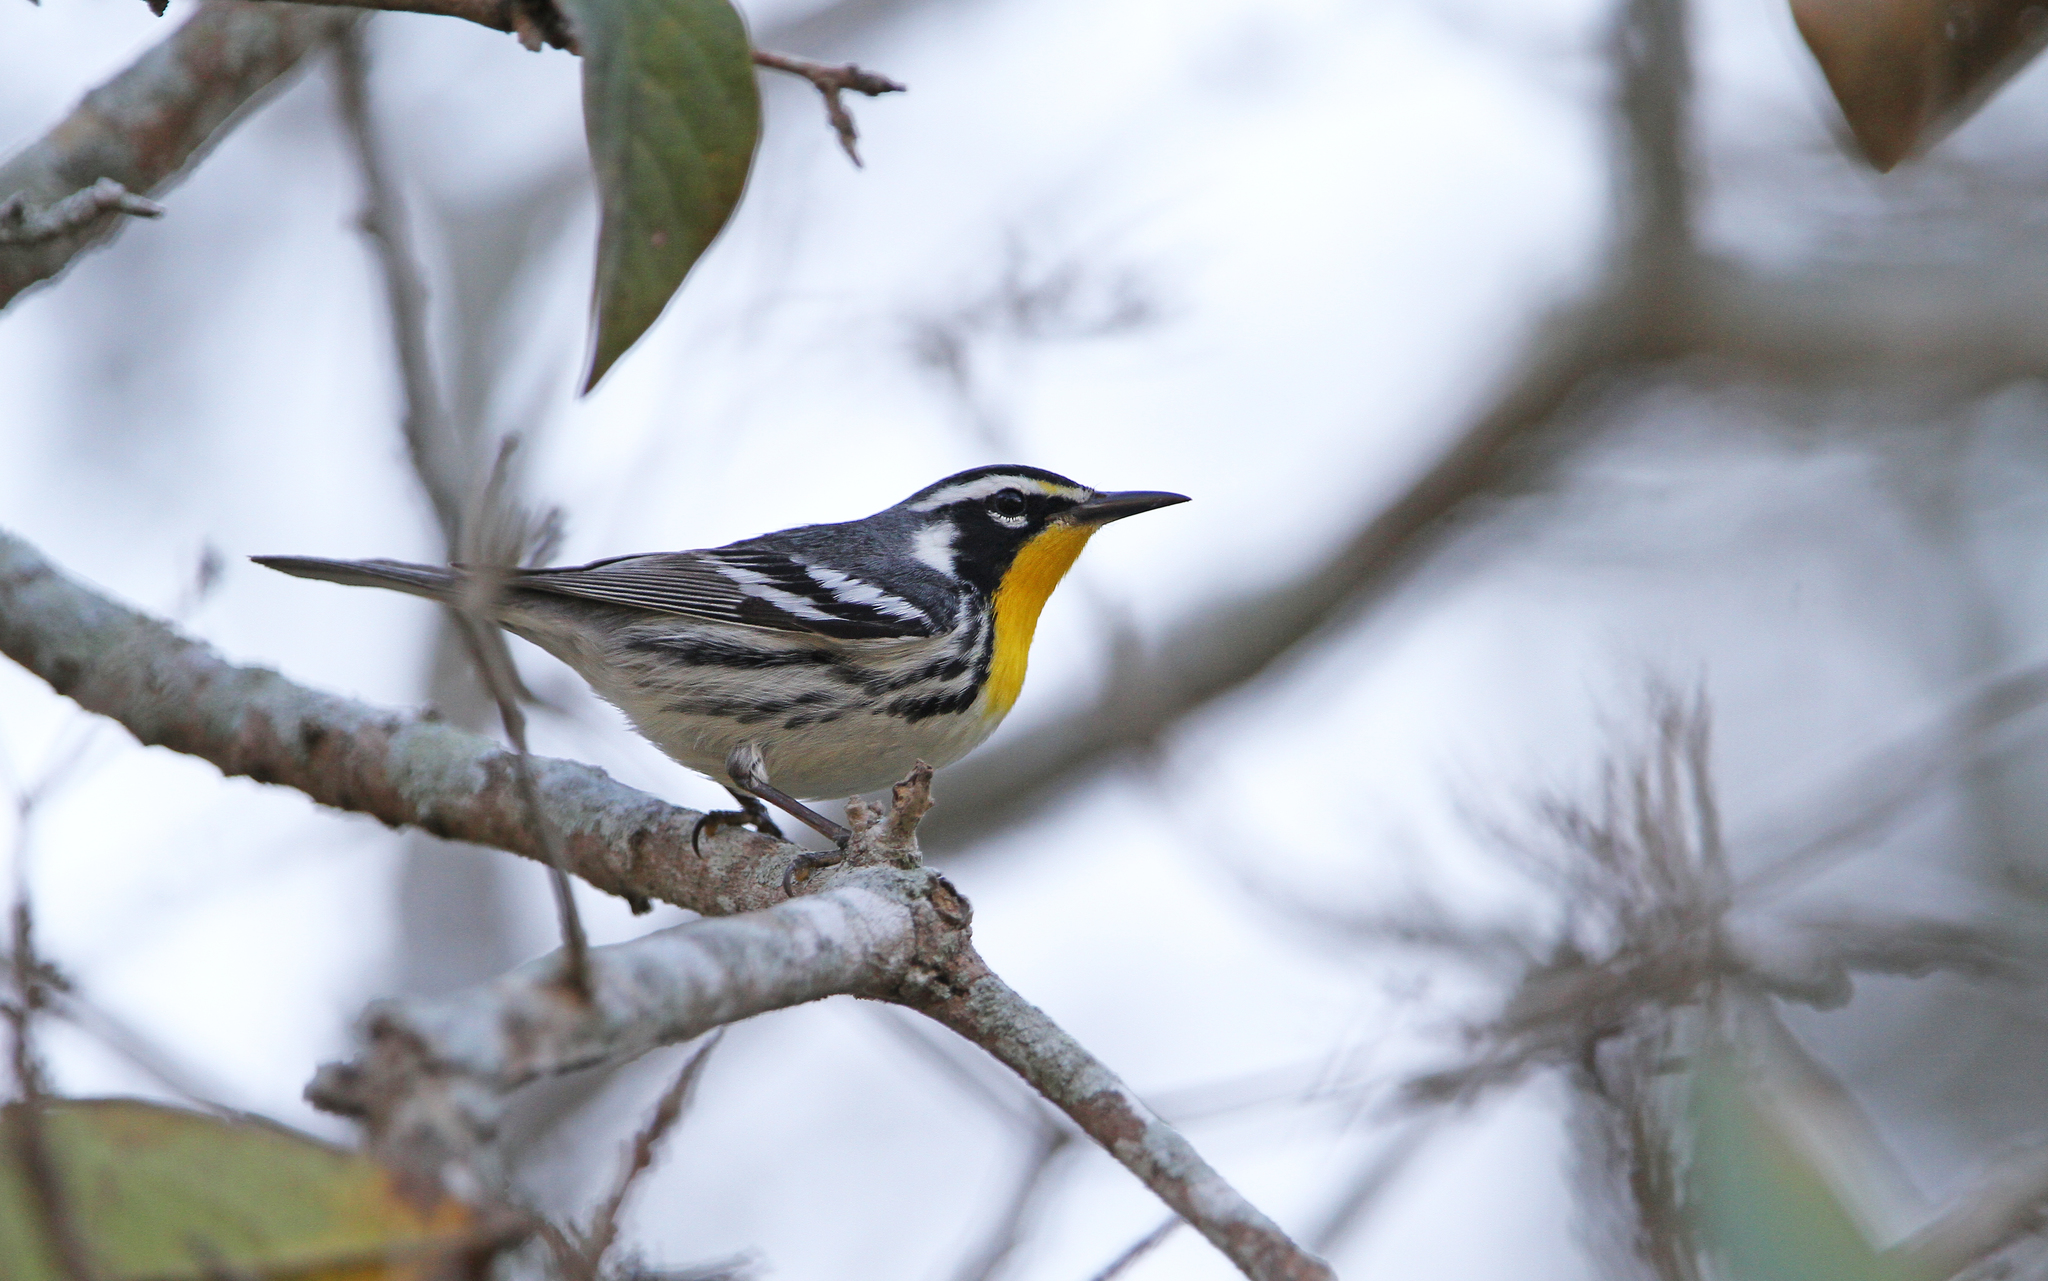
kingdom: Animalia
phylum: Chordata
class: Aves
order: Passeriformes
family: Parulidae
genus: Setophaga
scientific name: Setophaga dominica
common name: Yellow-throated warbler
